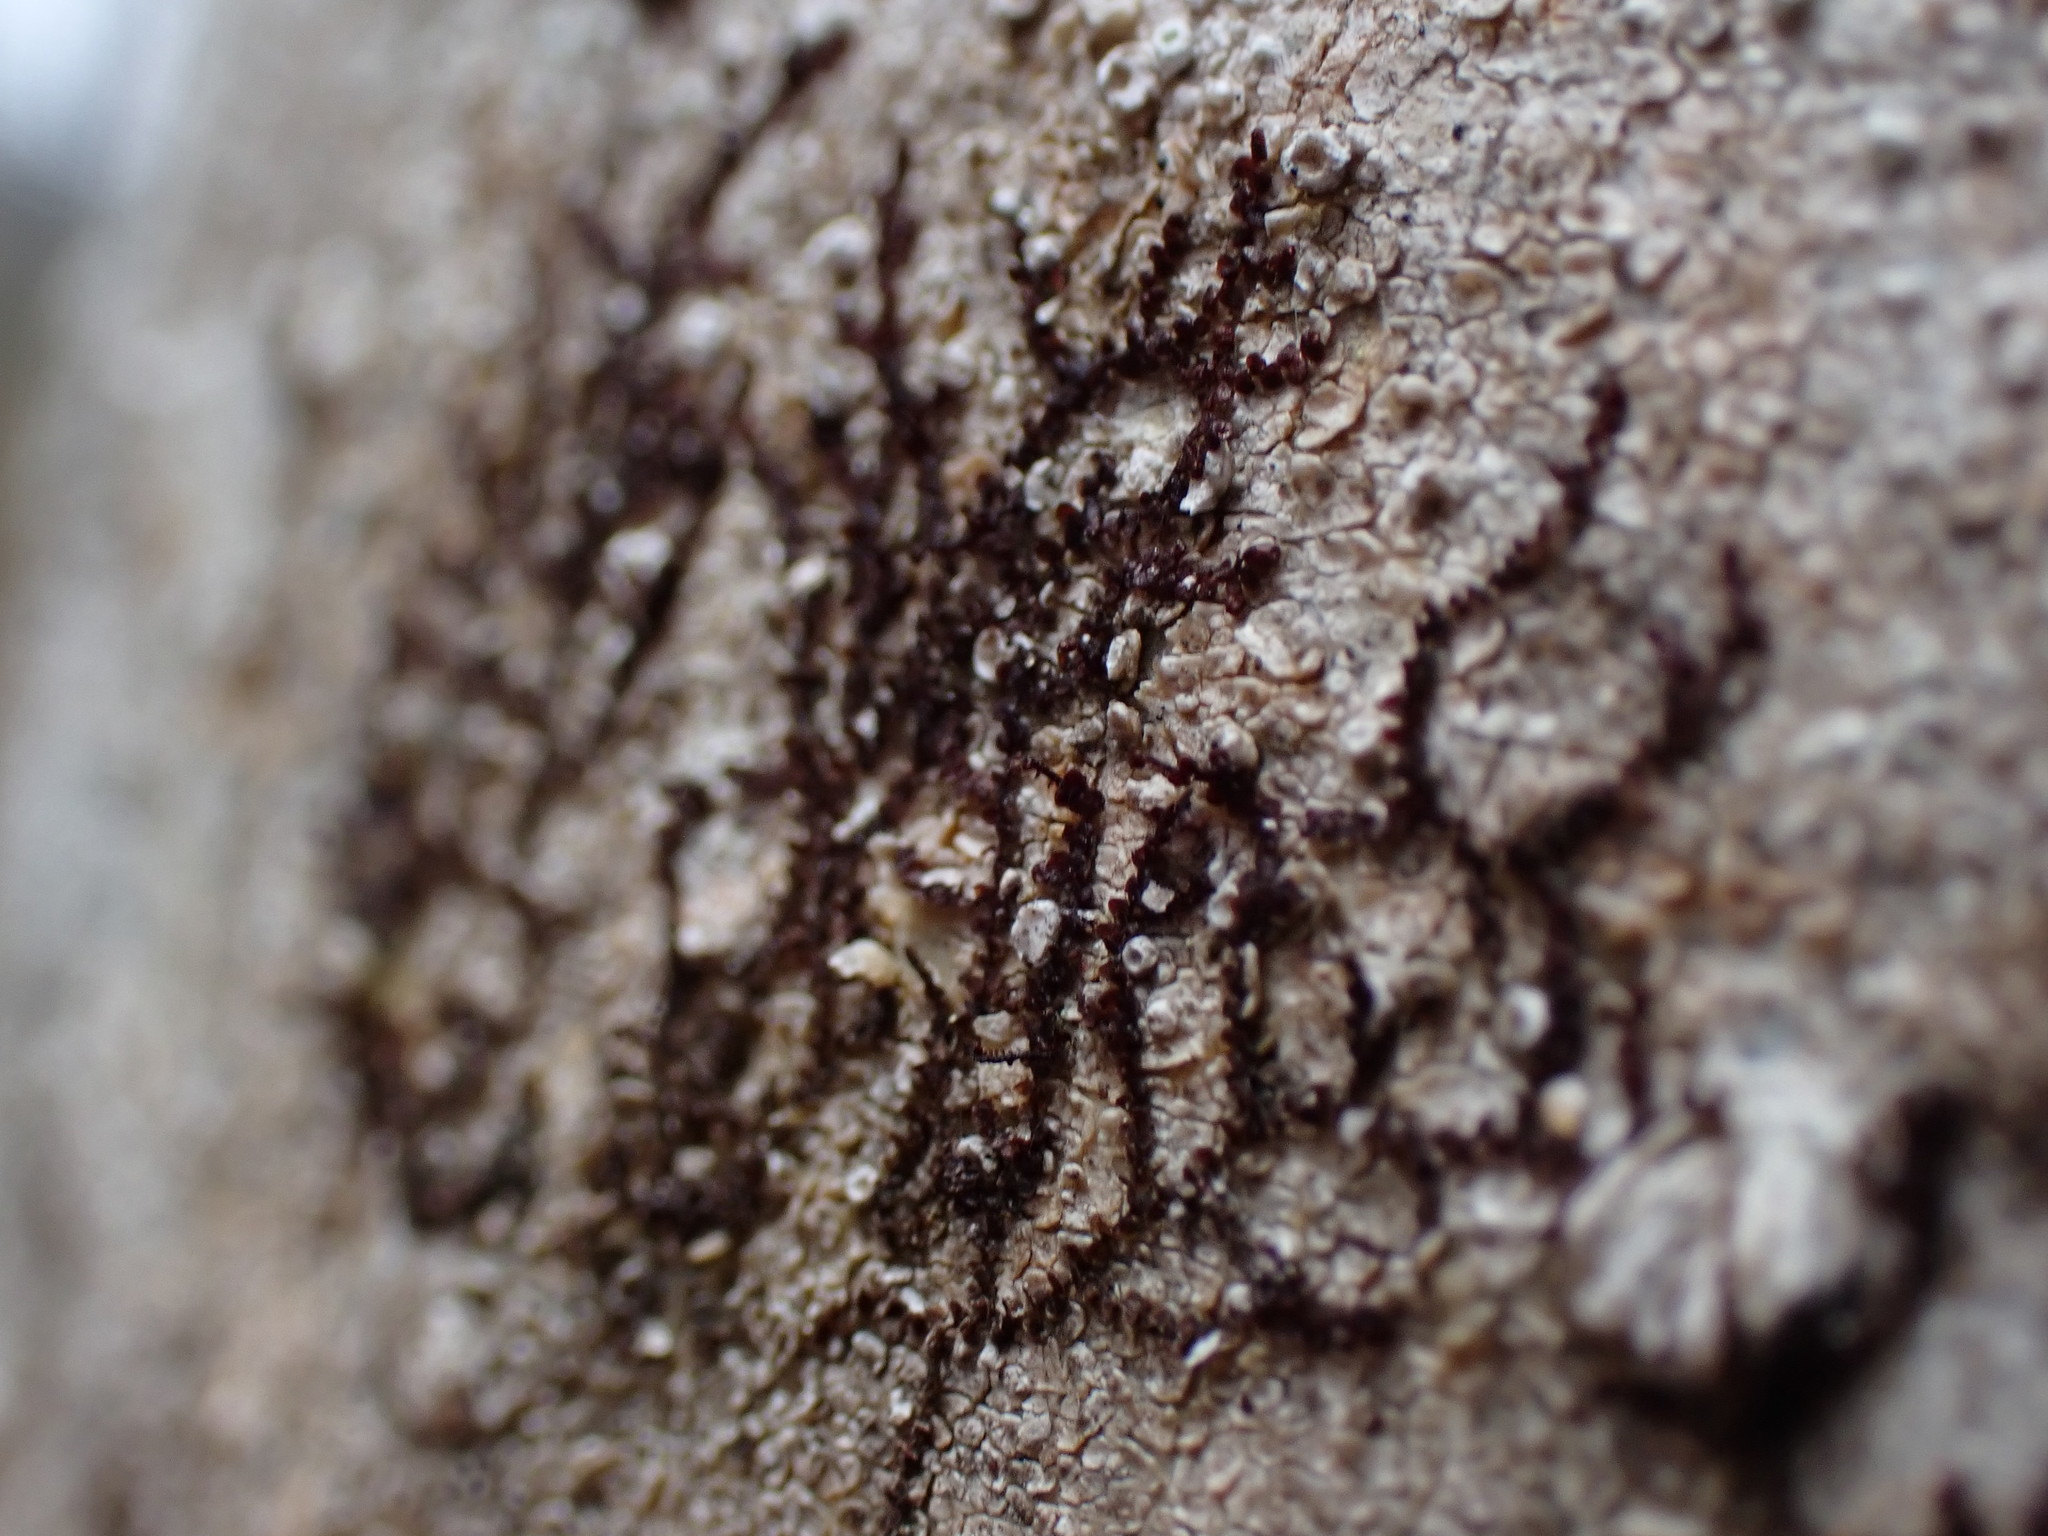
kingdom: Plantae
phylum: Marchantiophyta
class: Jungermanniopsida
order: Porellales
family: Frullaniaceae
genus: Frullania
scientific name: Frullania bolanderi
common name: Bolander s scalewort
